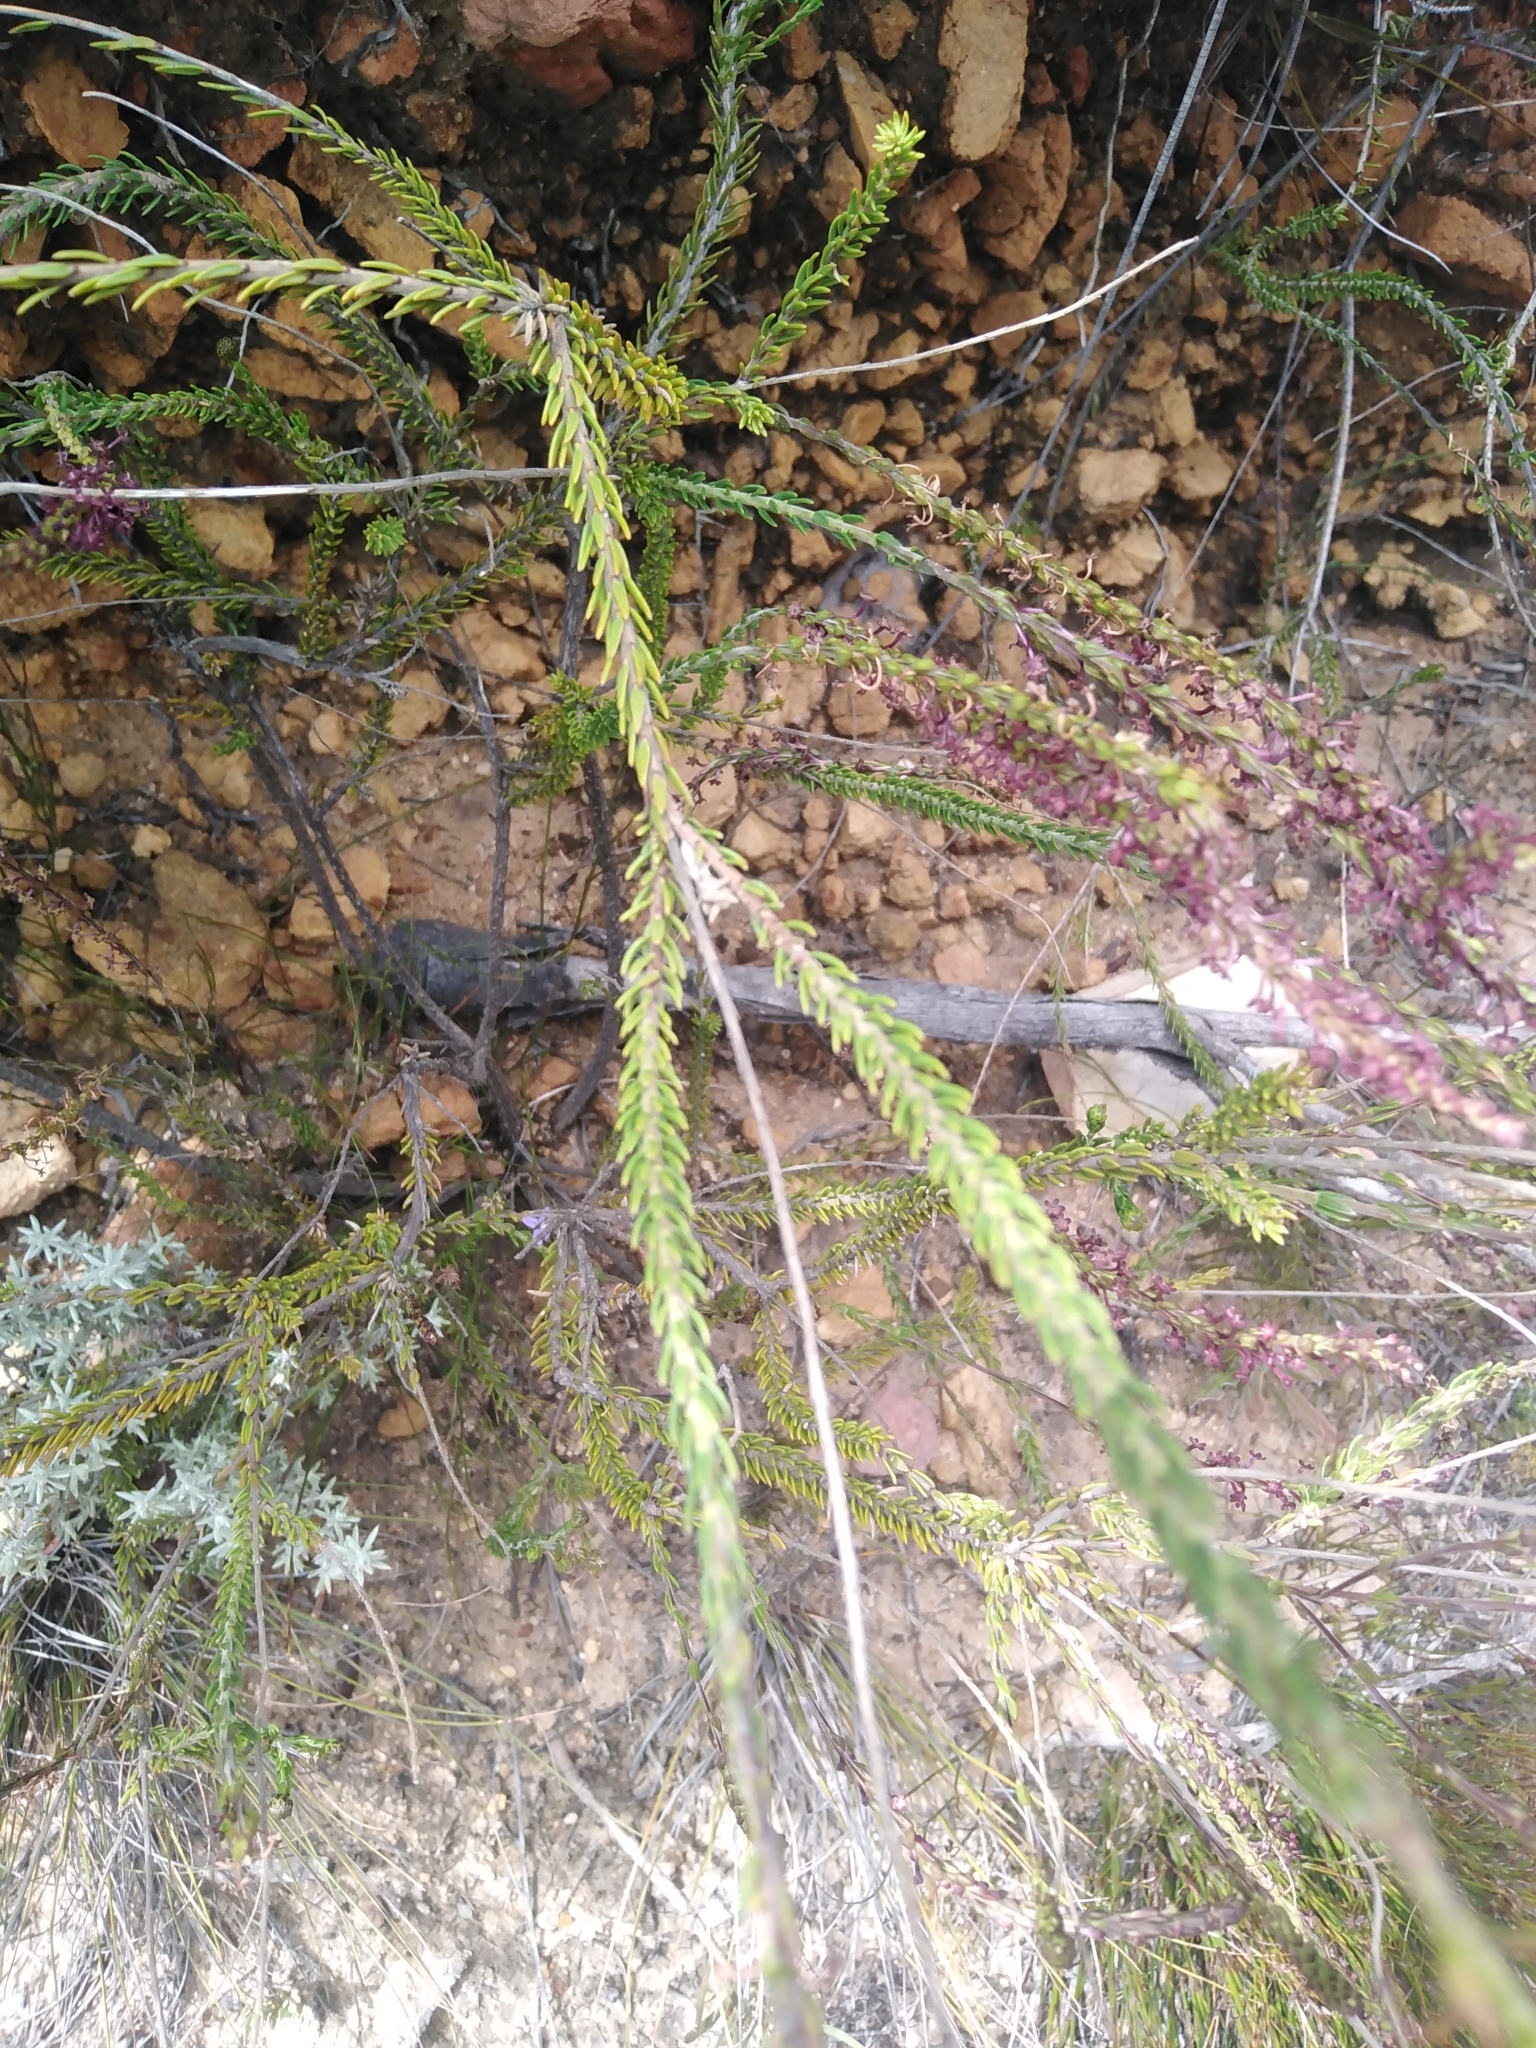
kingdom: Plantae
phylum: Tracheophyta
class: Magnoliopsida
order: Lamiales
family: Scrophulariaceae
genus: Microdon
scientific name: Microdon dubius
